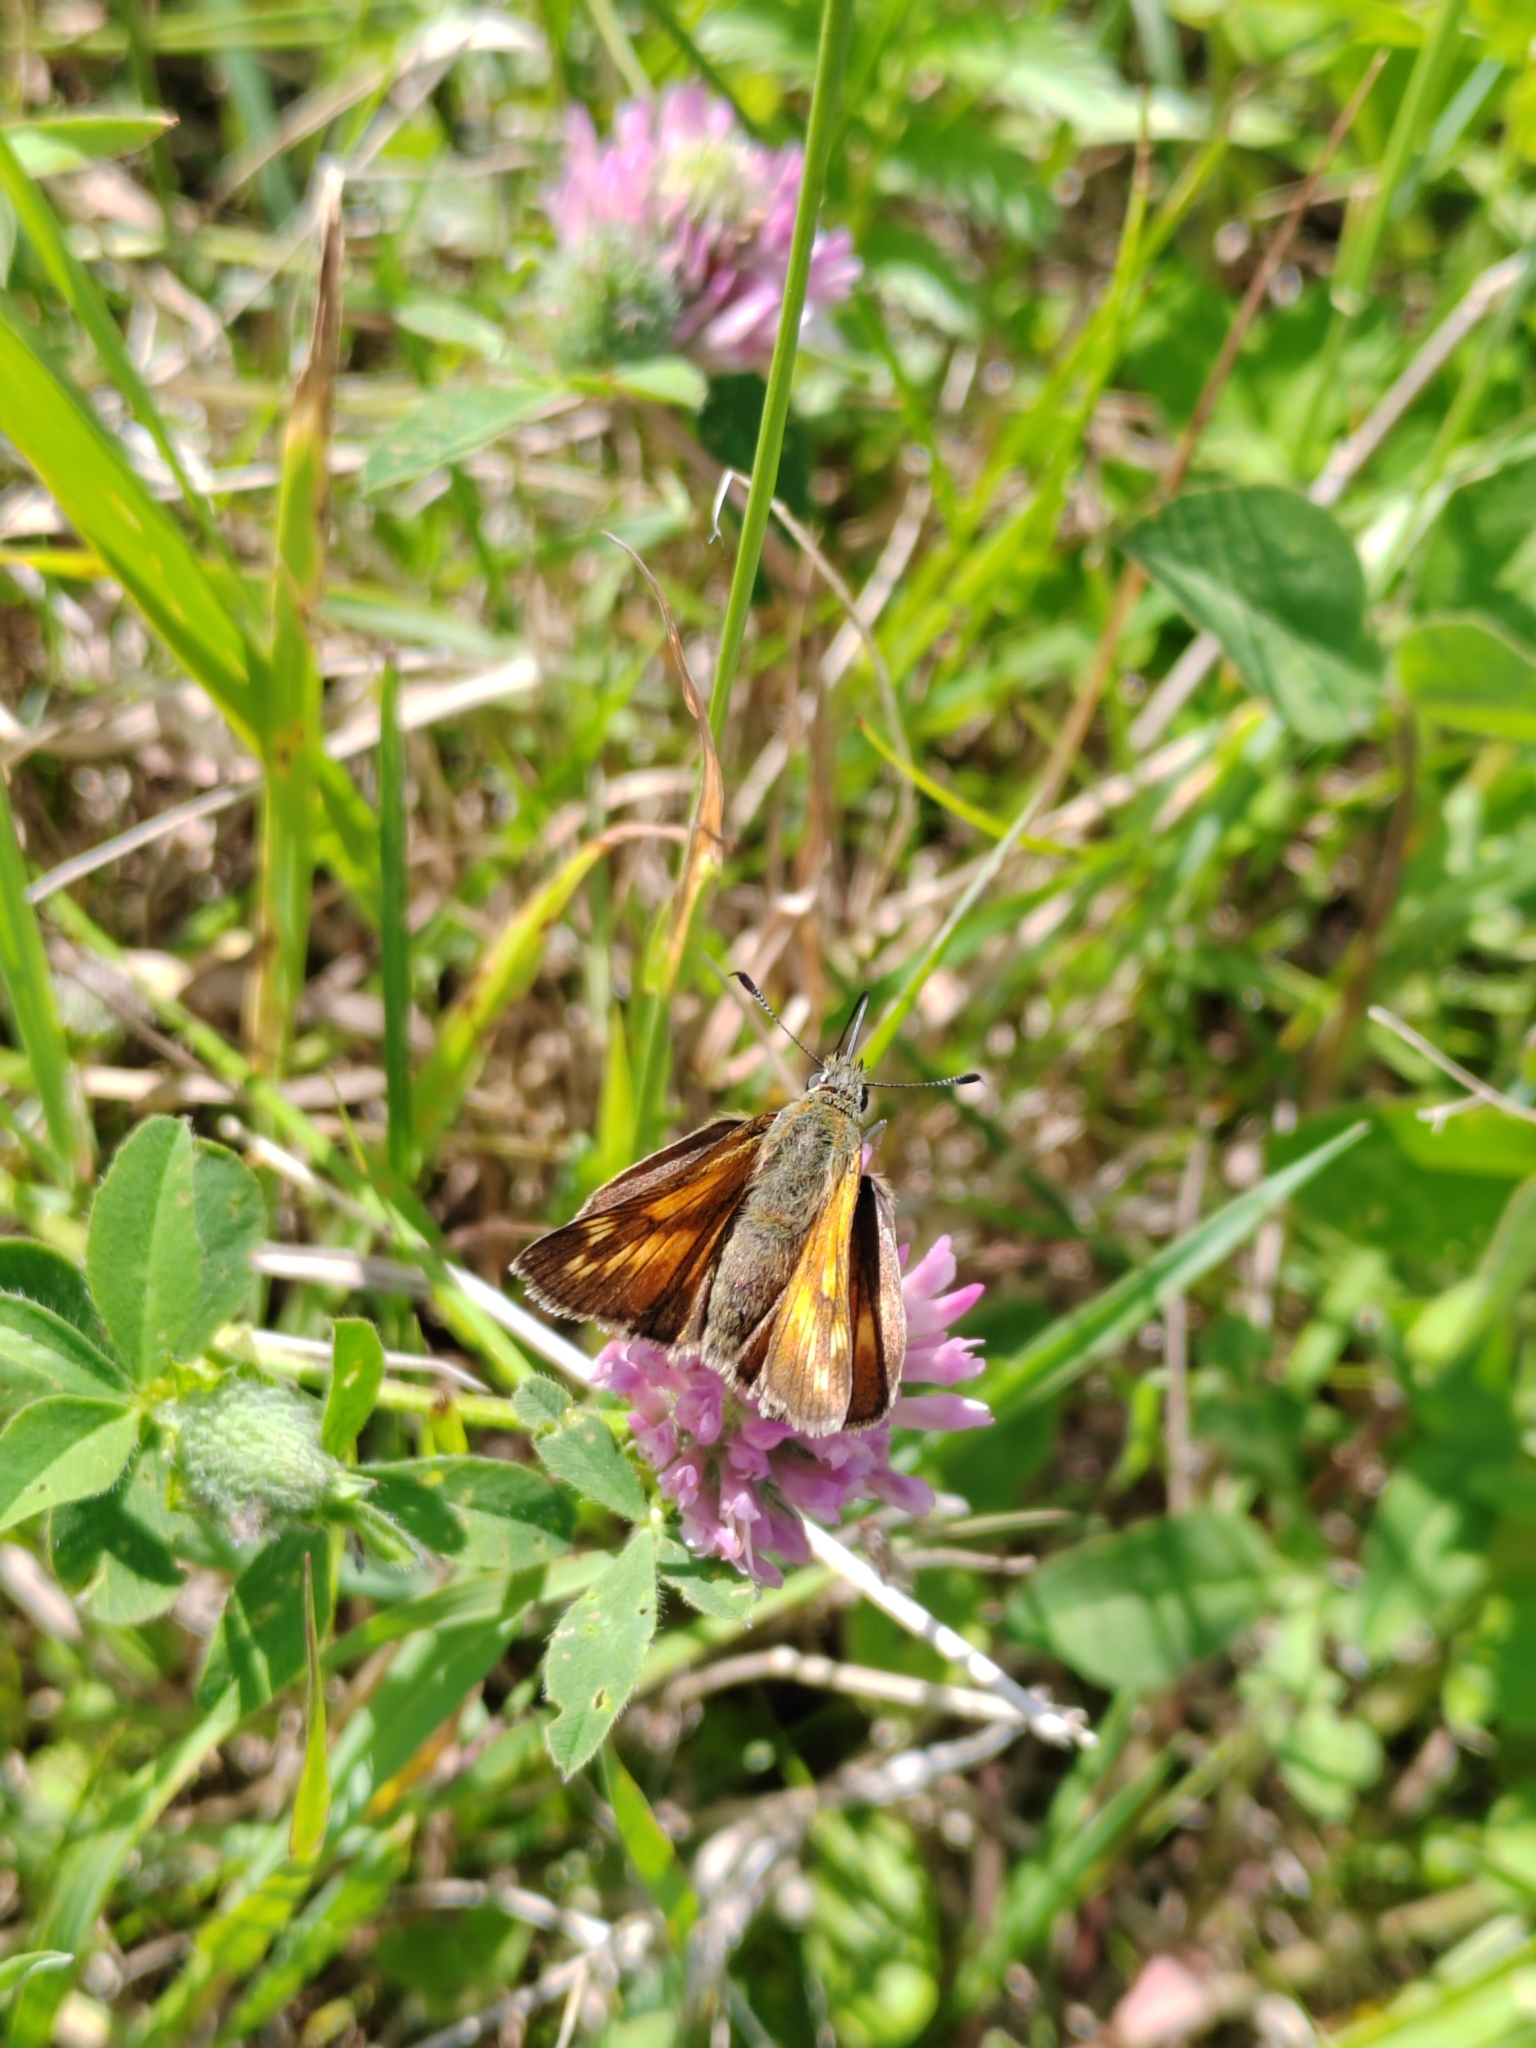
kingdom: Animalia
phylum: Arthropoda
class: Insecta
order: Lepidoptera
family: Hesperiidae
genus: Ochlodes
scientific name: Ochlodes venata
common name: Large skipper
